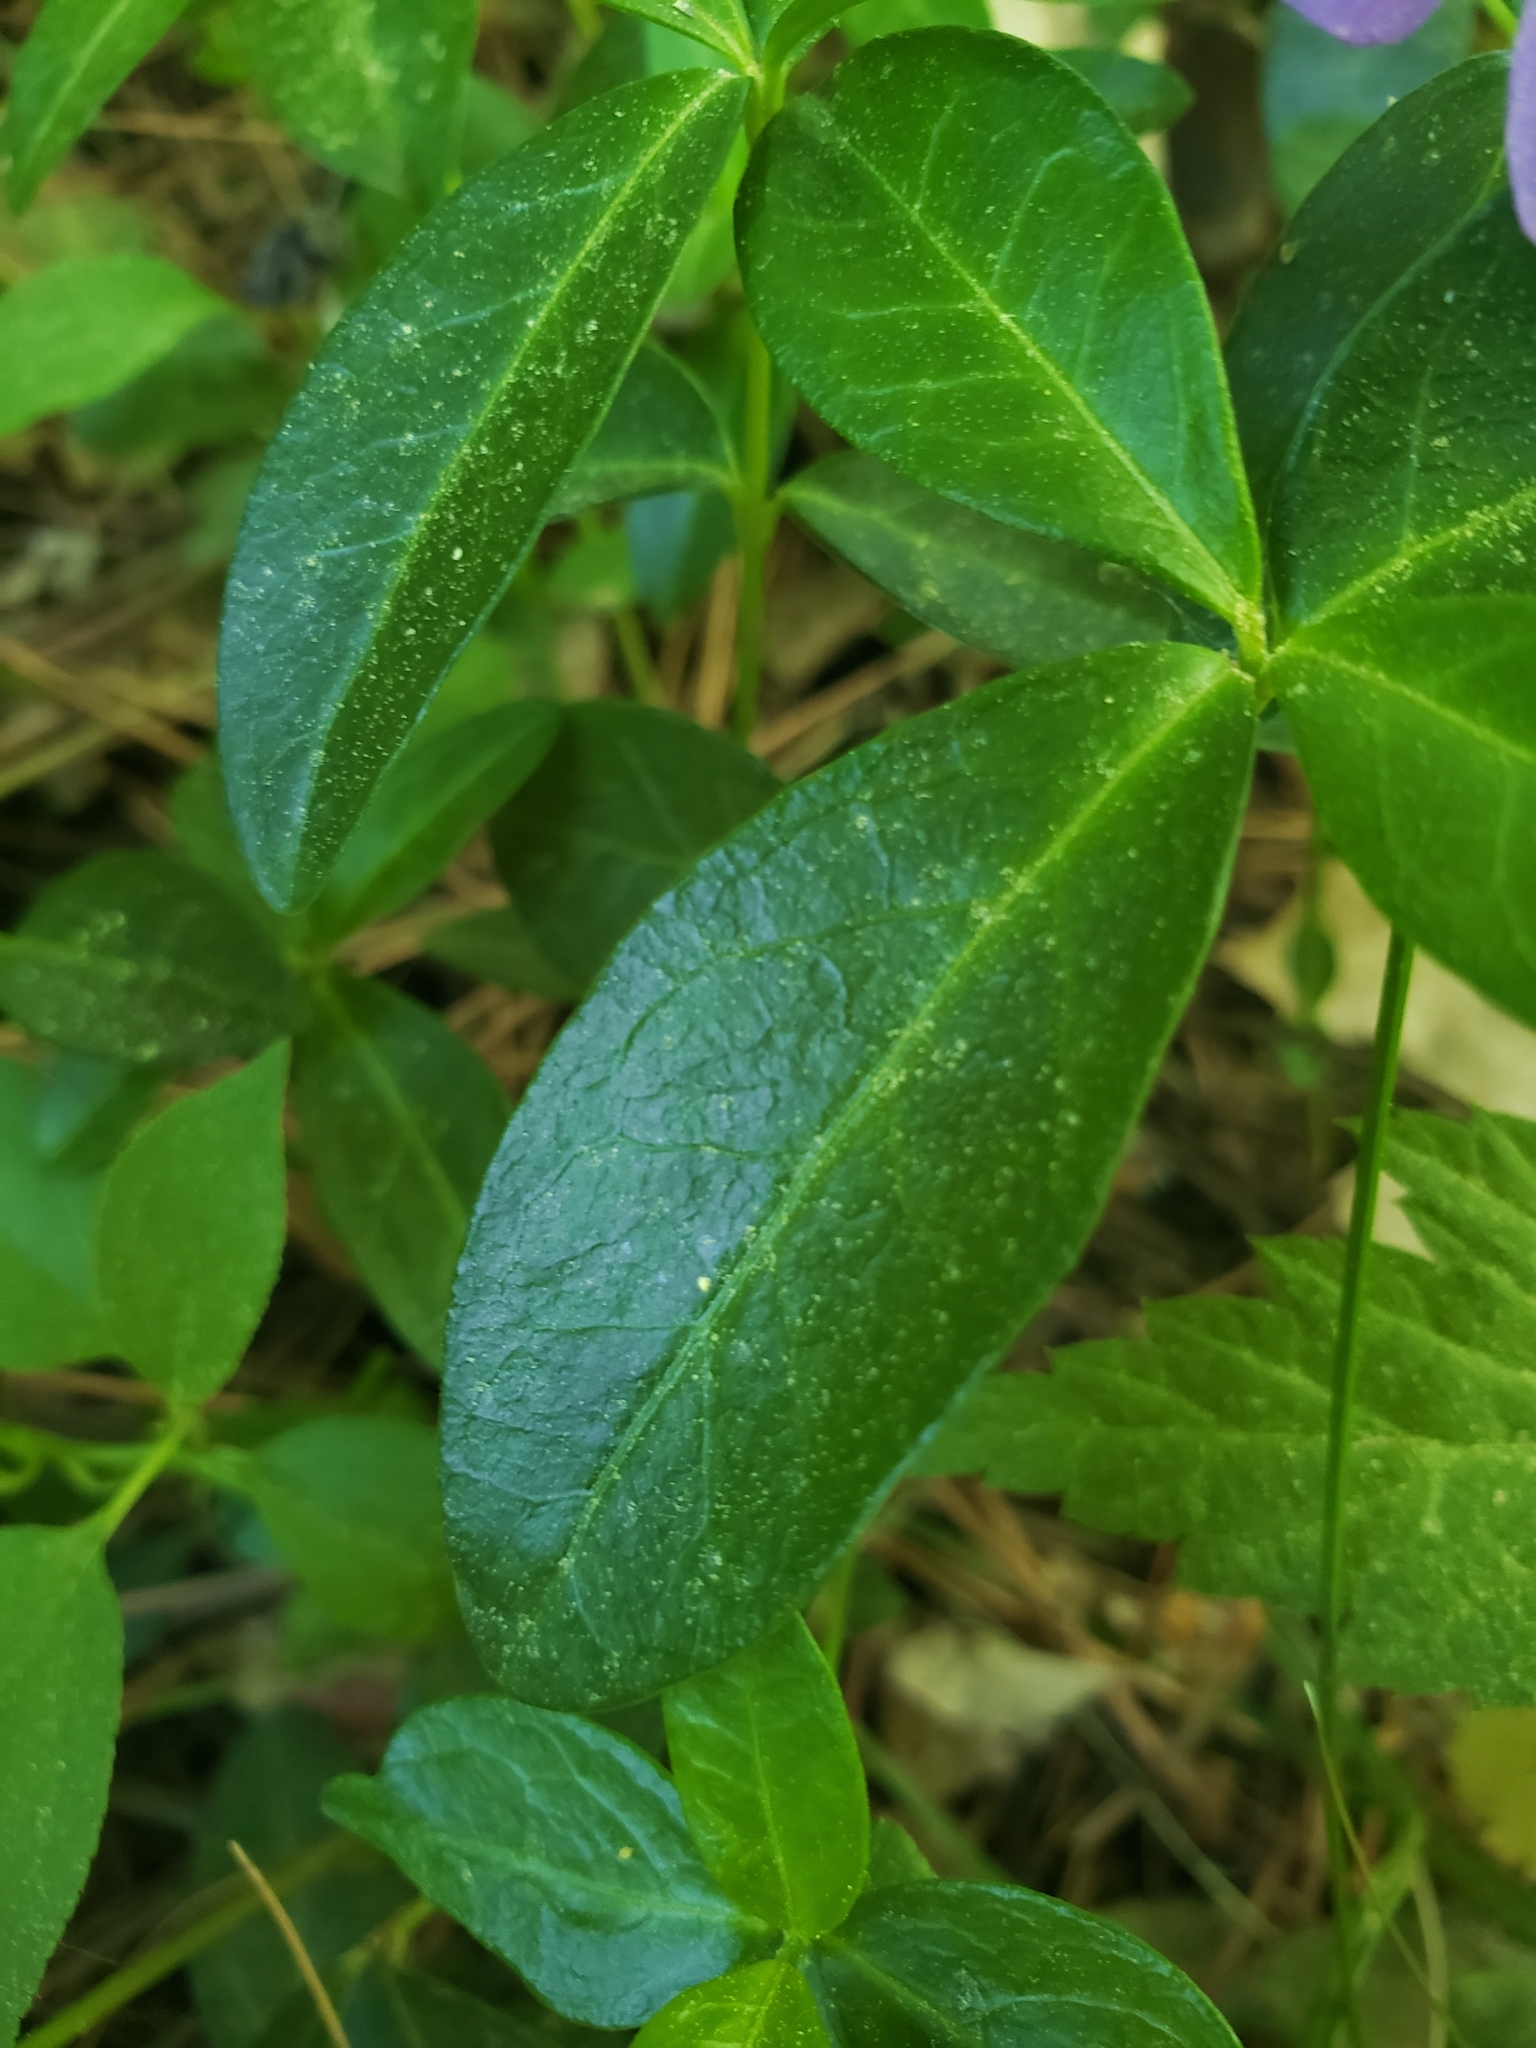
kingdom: Plantae
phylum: Tracheophyta
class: Magnoliopsida
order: Gentianales
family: Apocynaceae
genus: Vinca
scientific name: Vinca minor
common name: Lesser periwinkle
